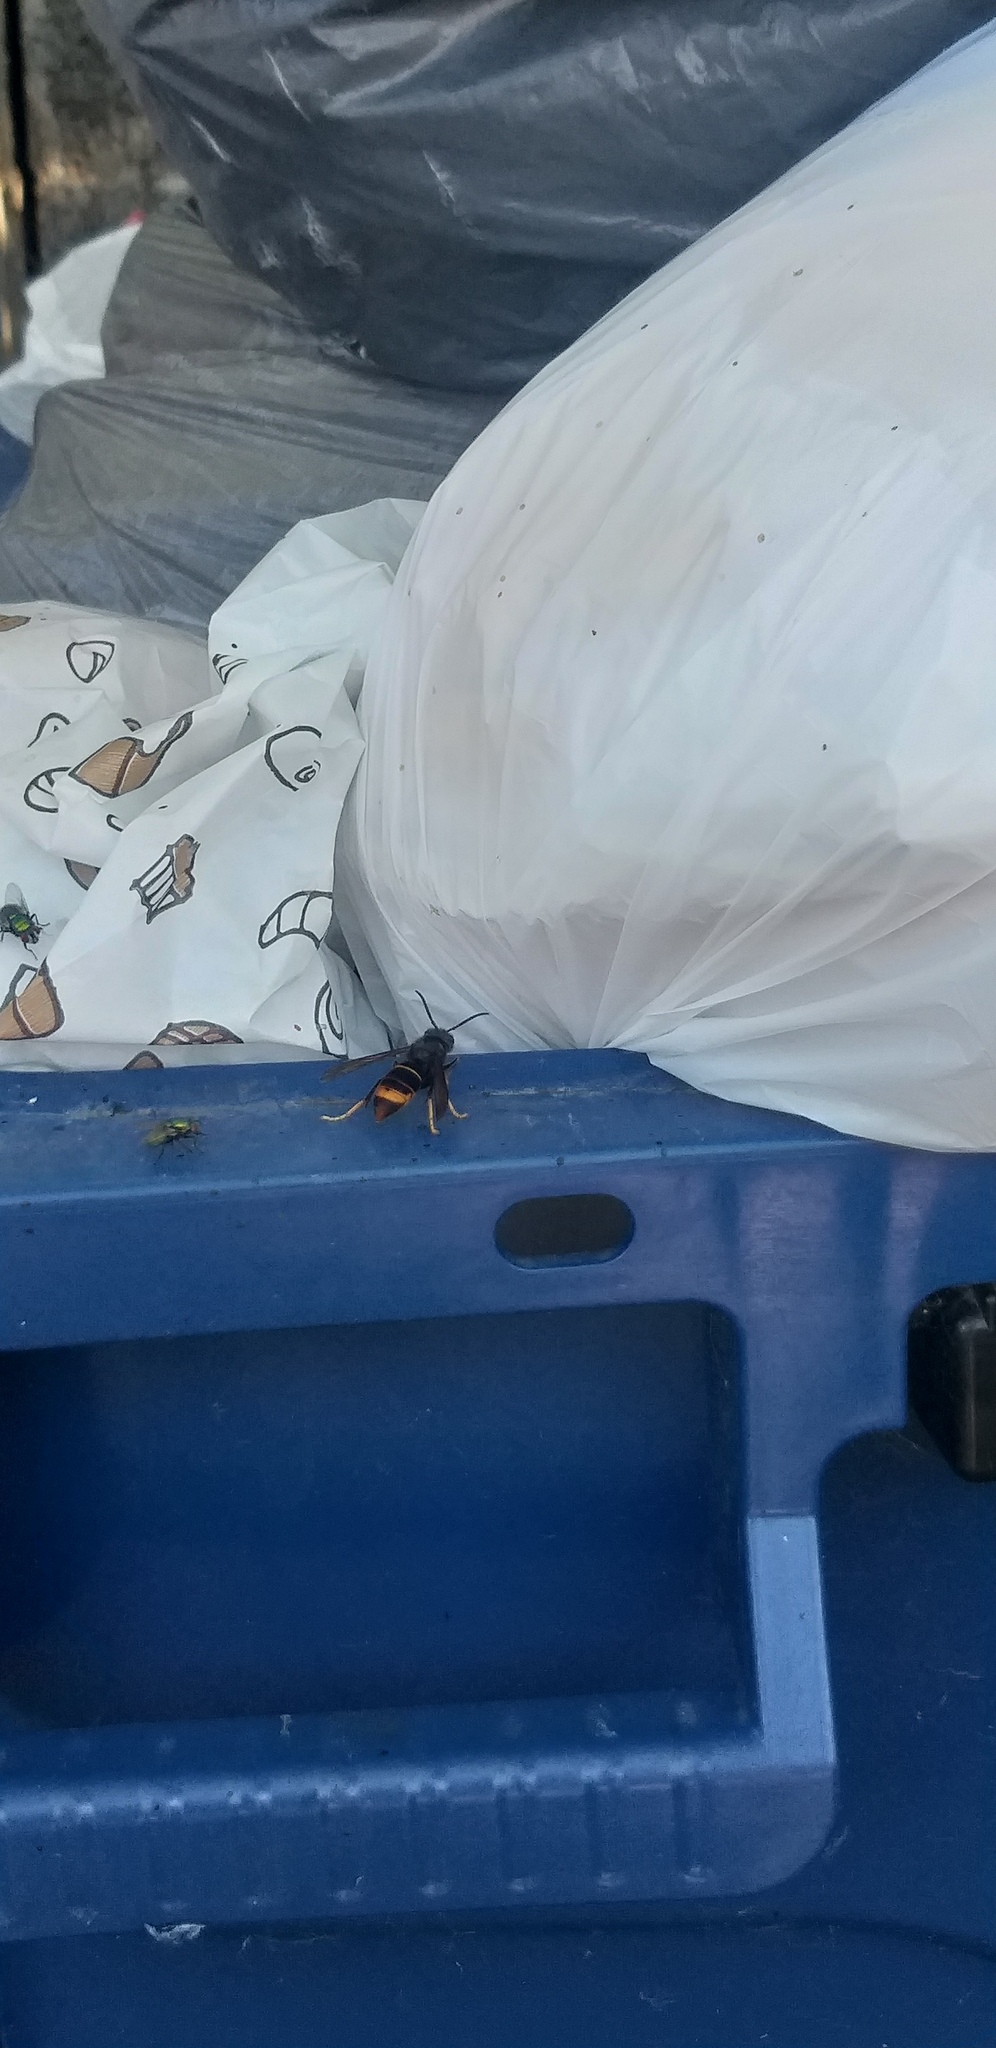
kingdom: Animalia
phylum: Arthropoda
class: Insecta
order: Hymenoptera
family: Vespidae
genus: Vespa
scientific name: Vespa velutina
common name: Asian hornet
